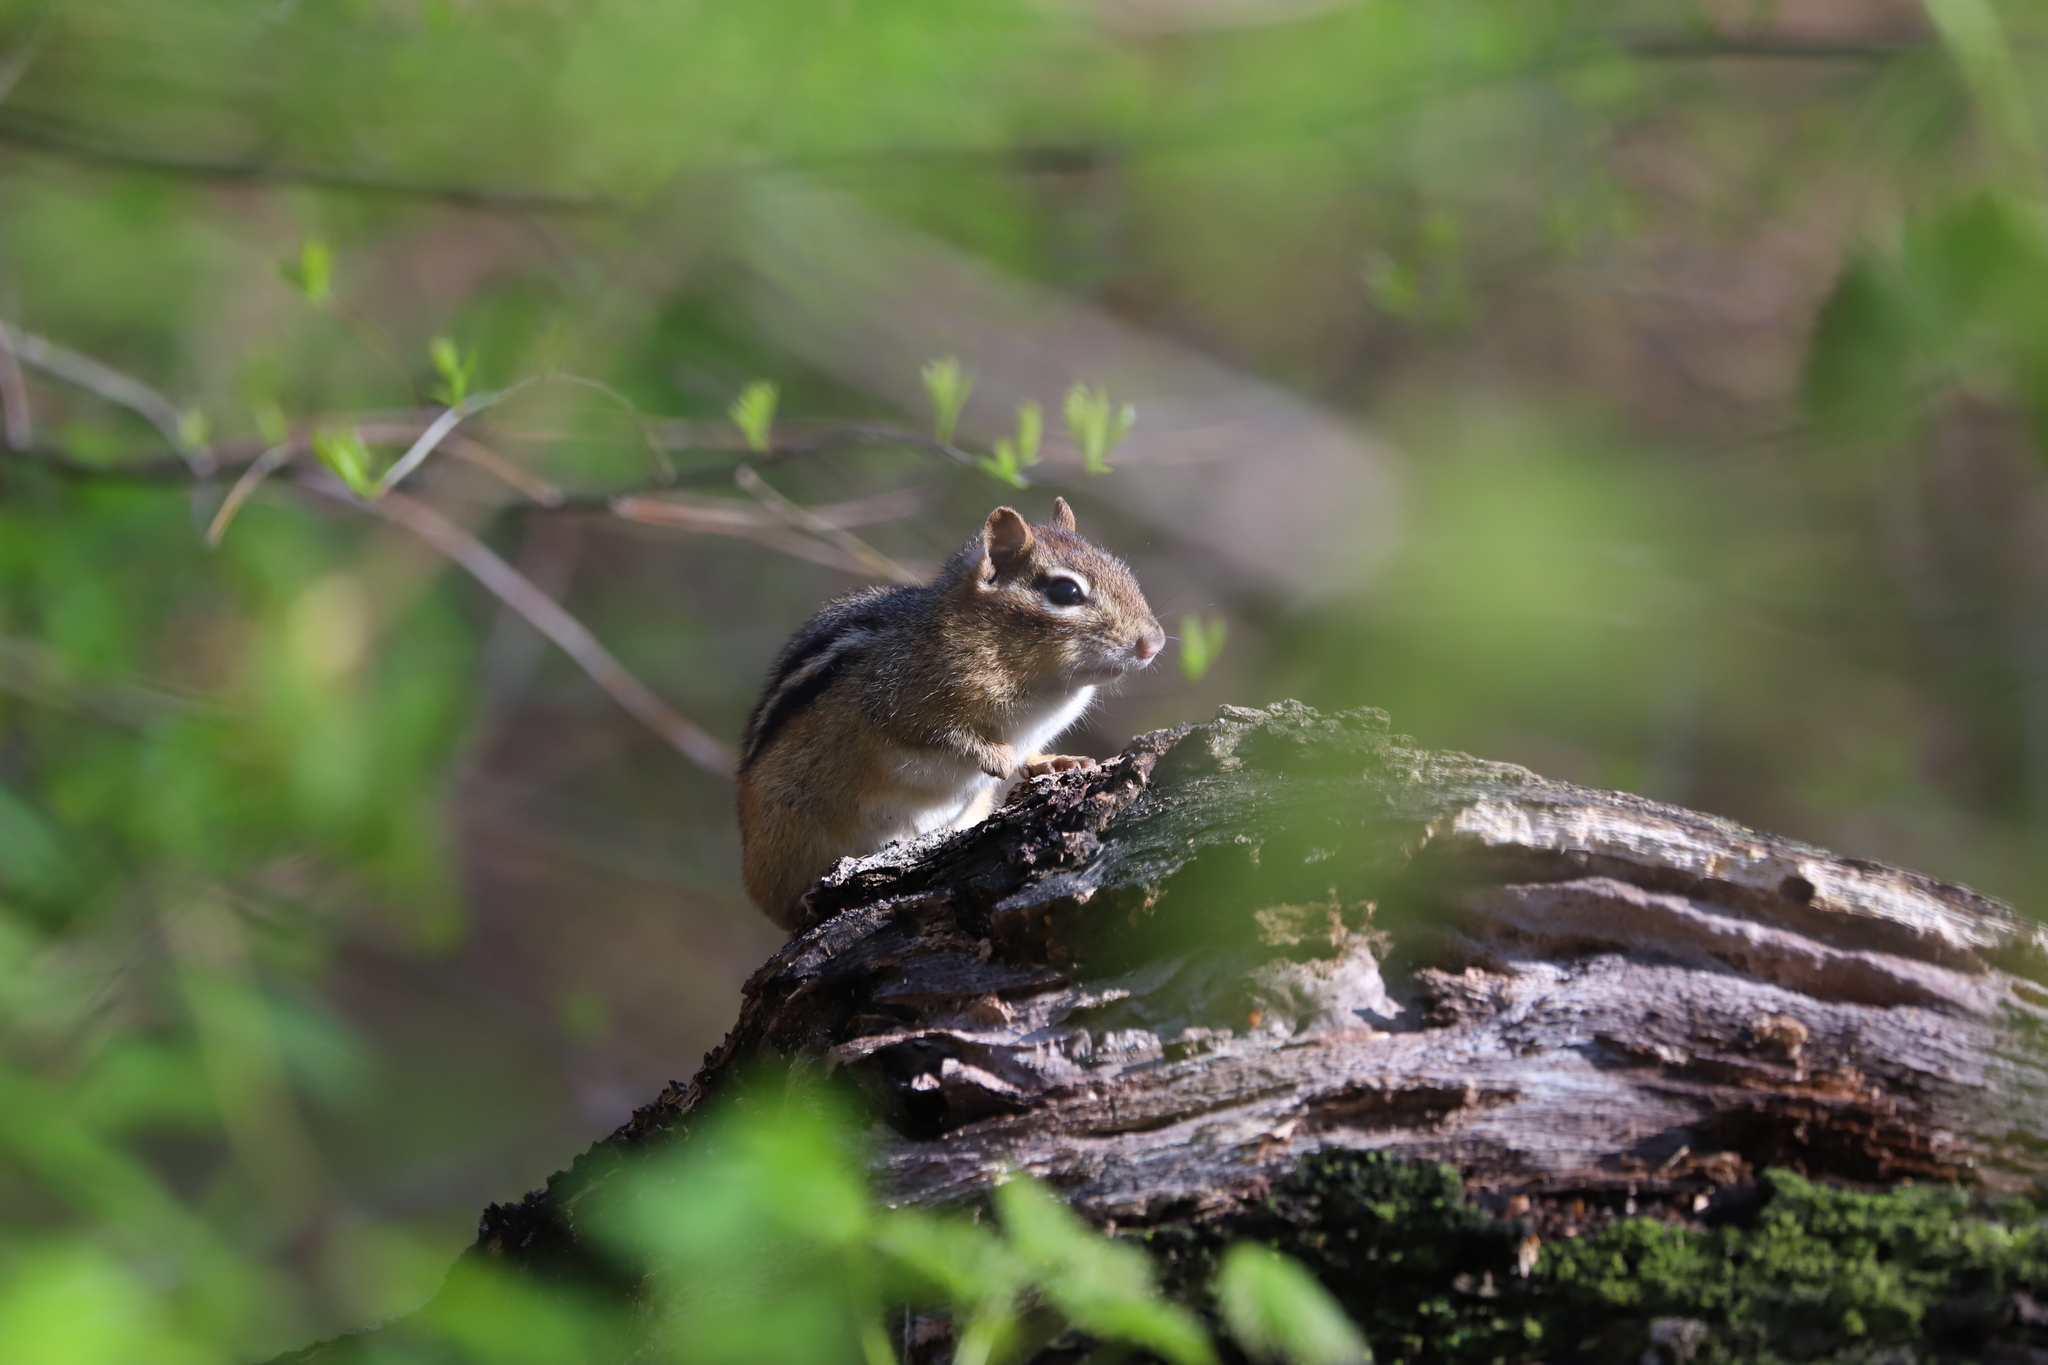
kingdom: Animalia
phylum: Chordata
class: Mammalia
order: Rodentia
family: Sciuridae
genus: Tamias
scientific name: Tamias striatus
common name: Eastern chipmunk
